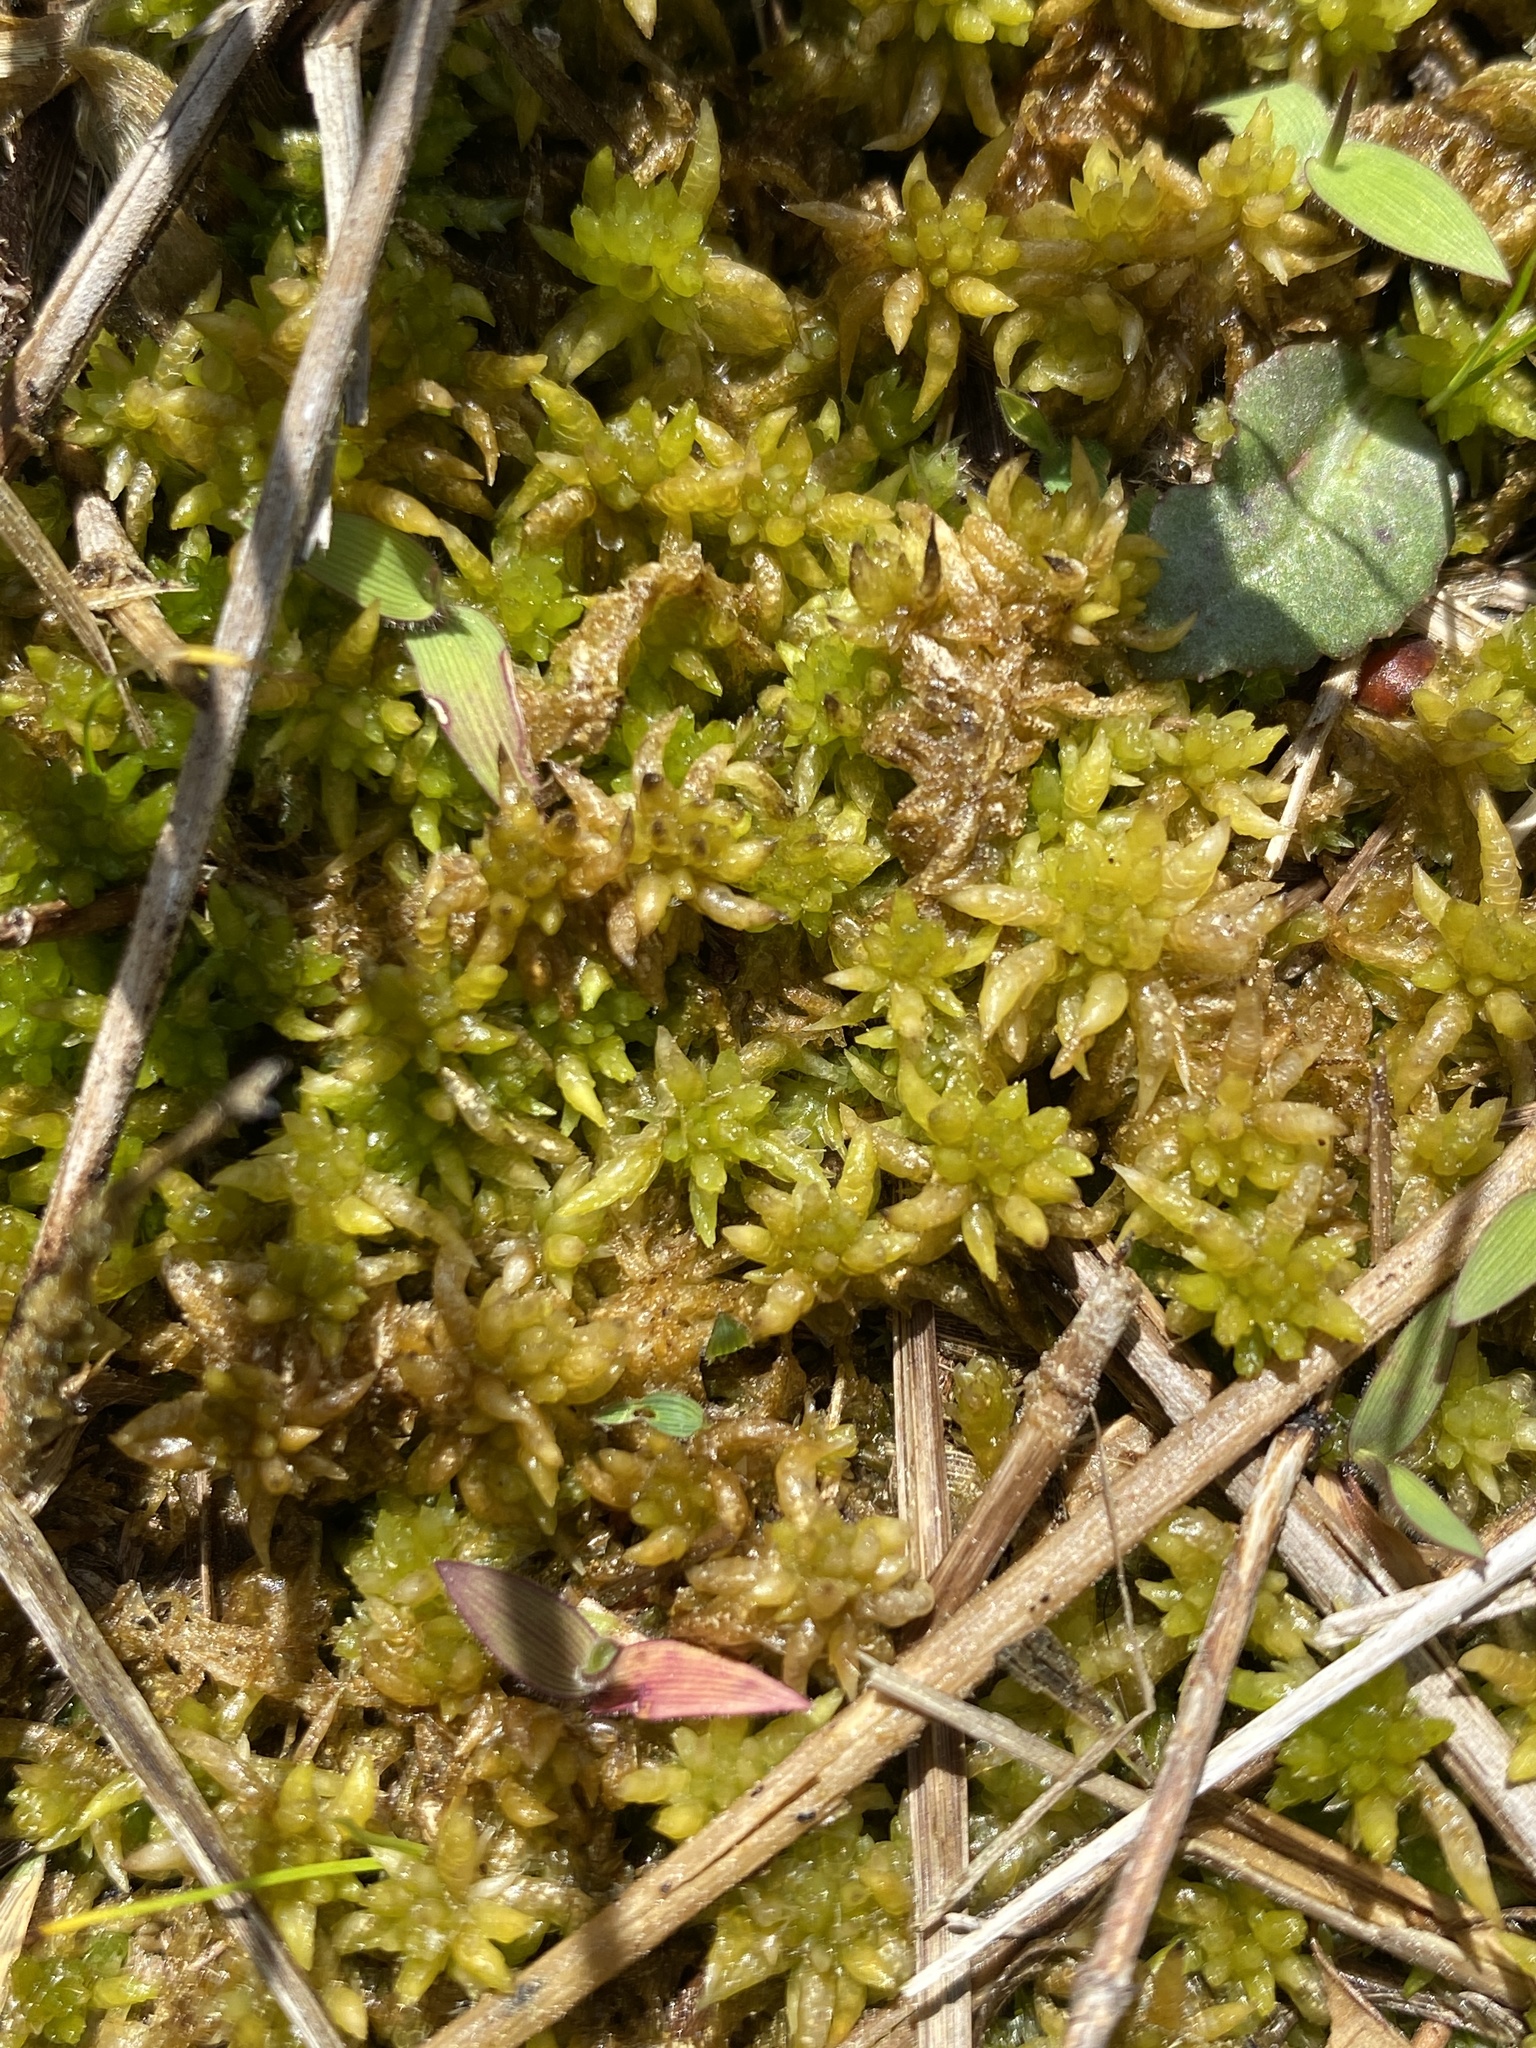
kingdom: Plantae
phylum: Bryophyta
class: Sphagnopsida
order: Sphagnales
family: Sphagnaceae
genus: Sphagnum
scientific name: Sphagnum lescurii
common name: Lesquereux's peat moss
